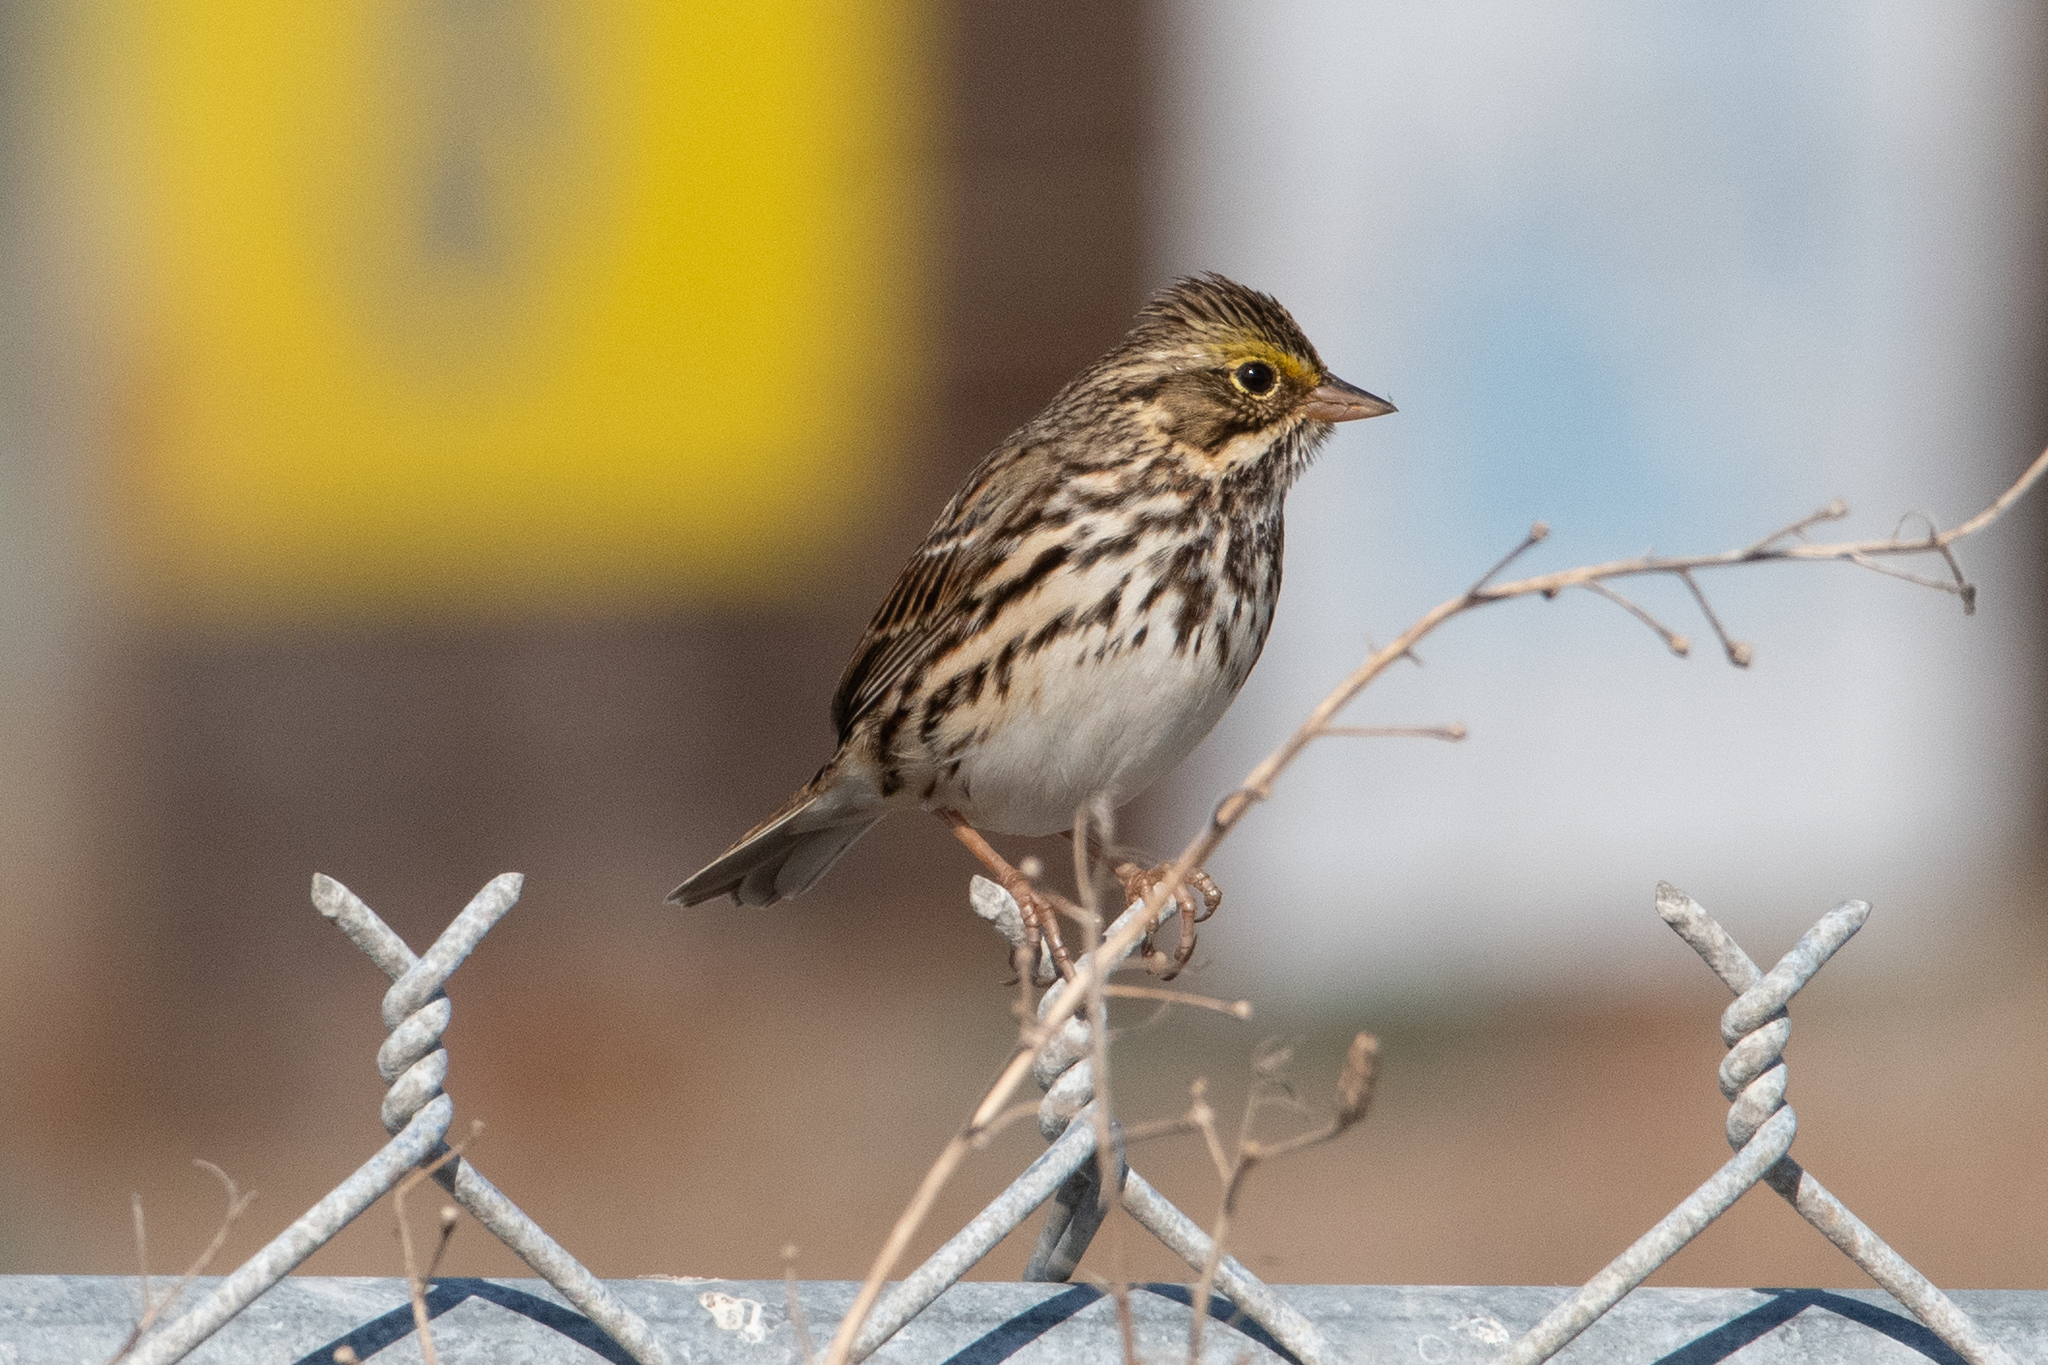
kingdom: Animalia
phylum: Chordata
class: Aves
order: Passeriformes
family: Passerellidae
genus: Passerculus
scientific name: Passerculus sandwichensis
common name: Savannah sparrow
